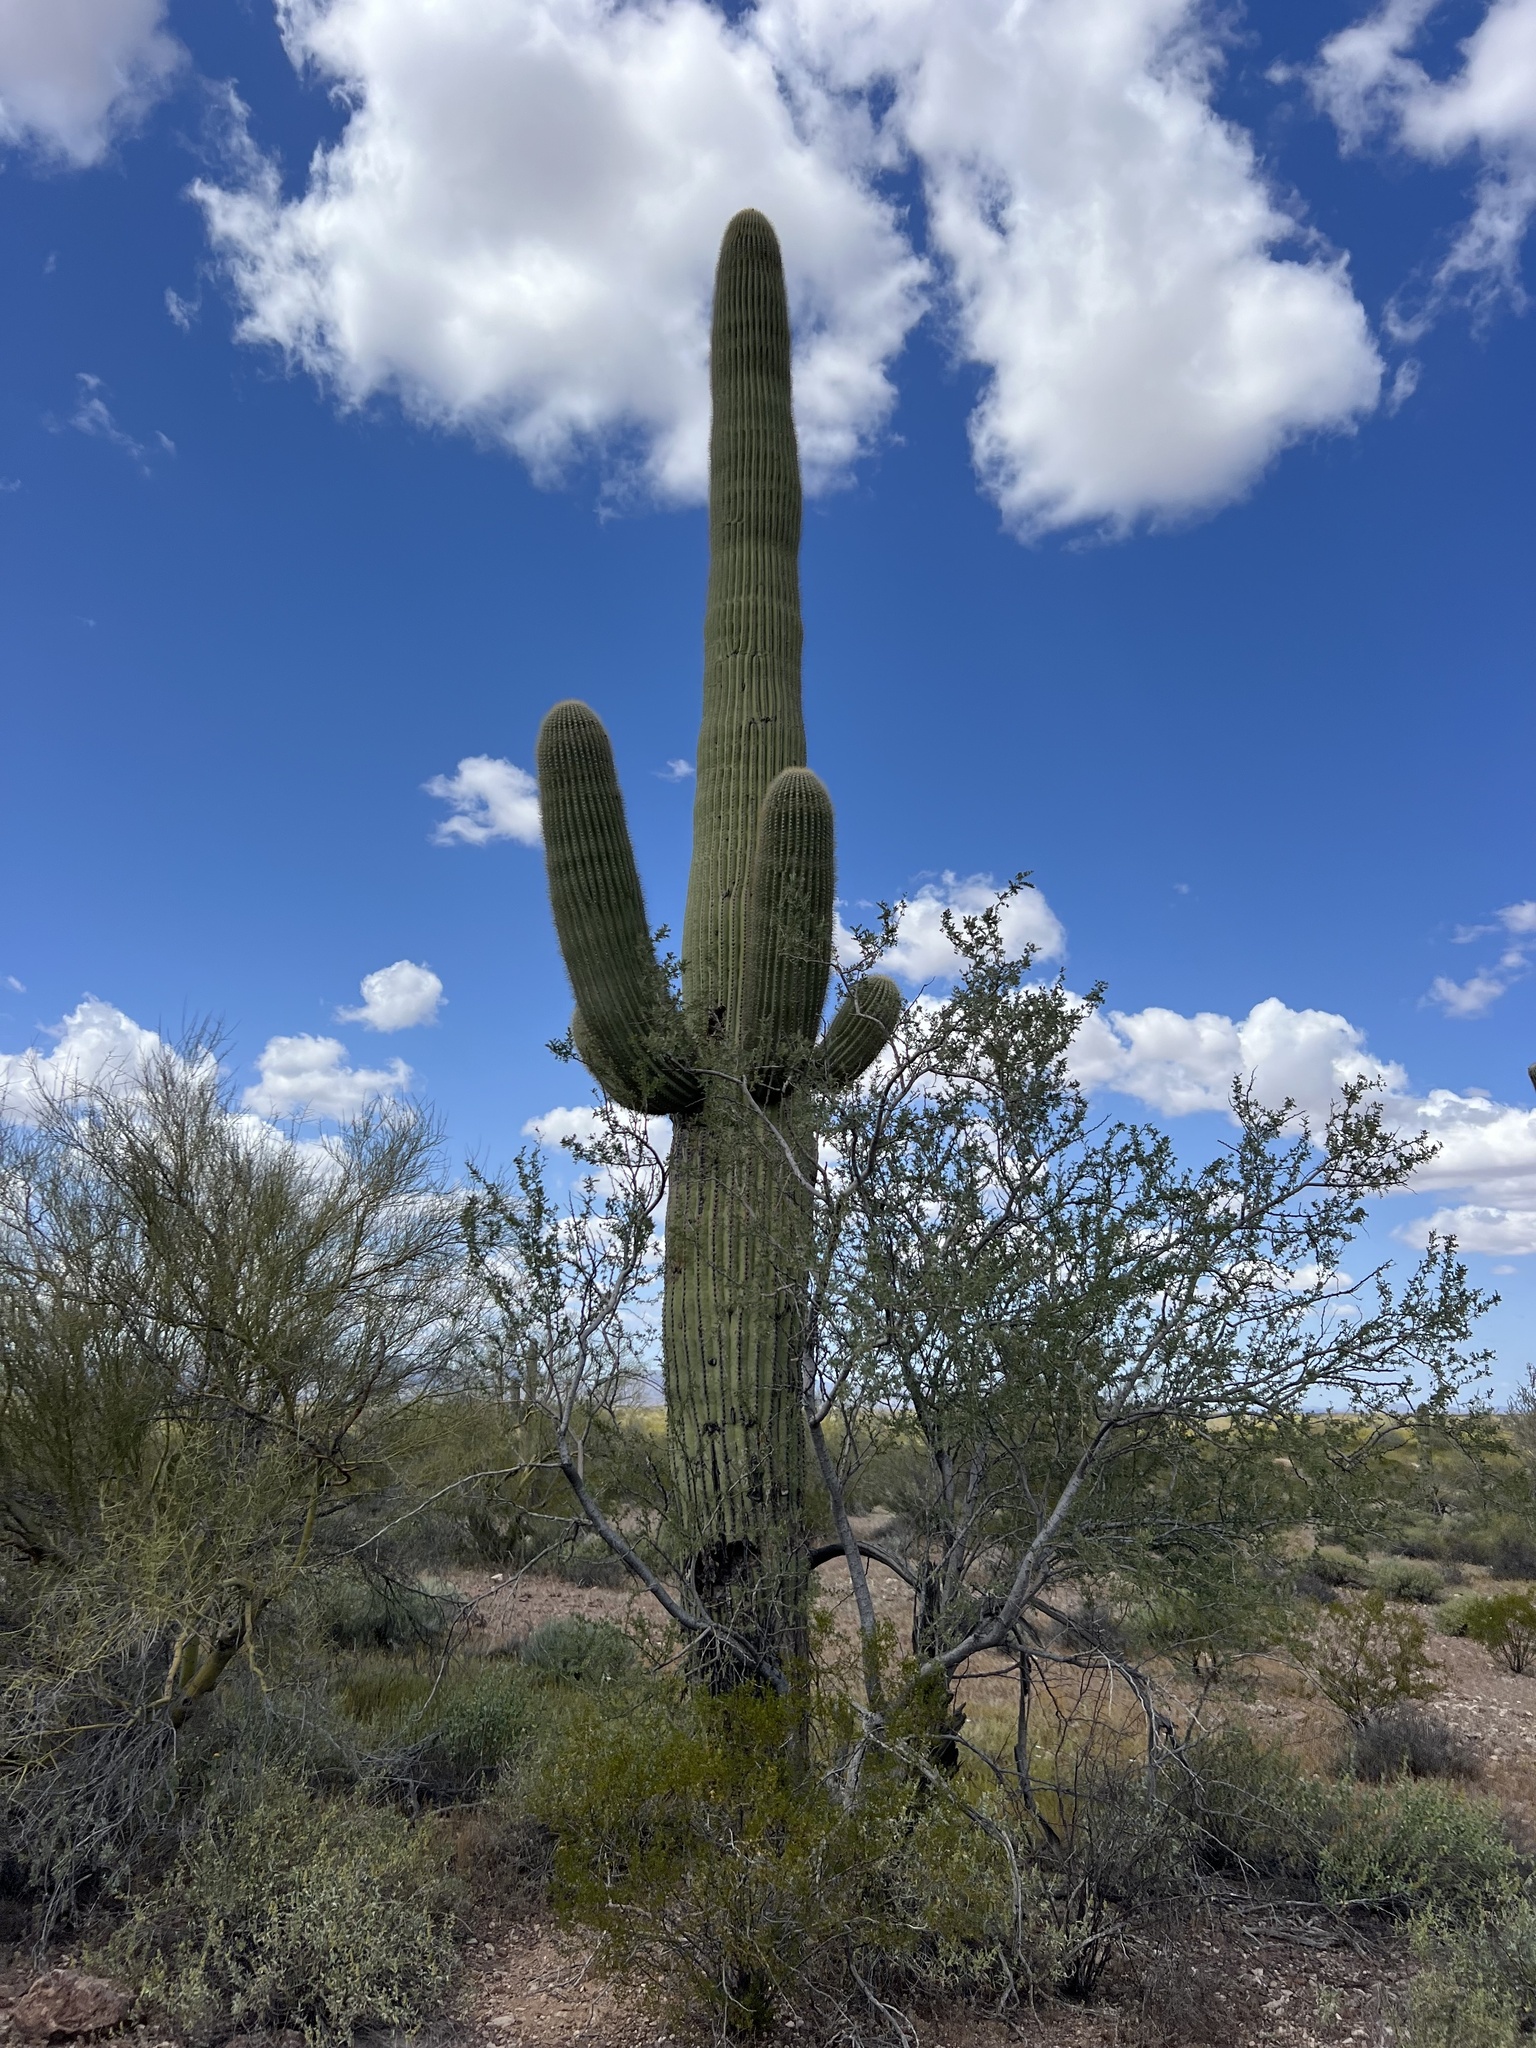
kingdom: Plantae
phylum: Tracheophyta
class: Magnoliopsida
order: Caryophyllales
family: Cactaceae
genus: Carnegiea
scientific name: Carnegiea gigantea
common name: Saguaro
